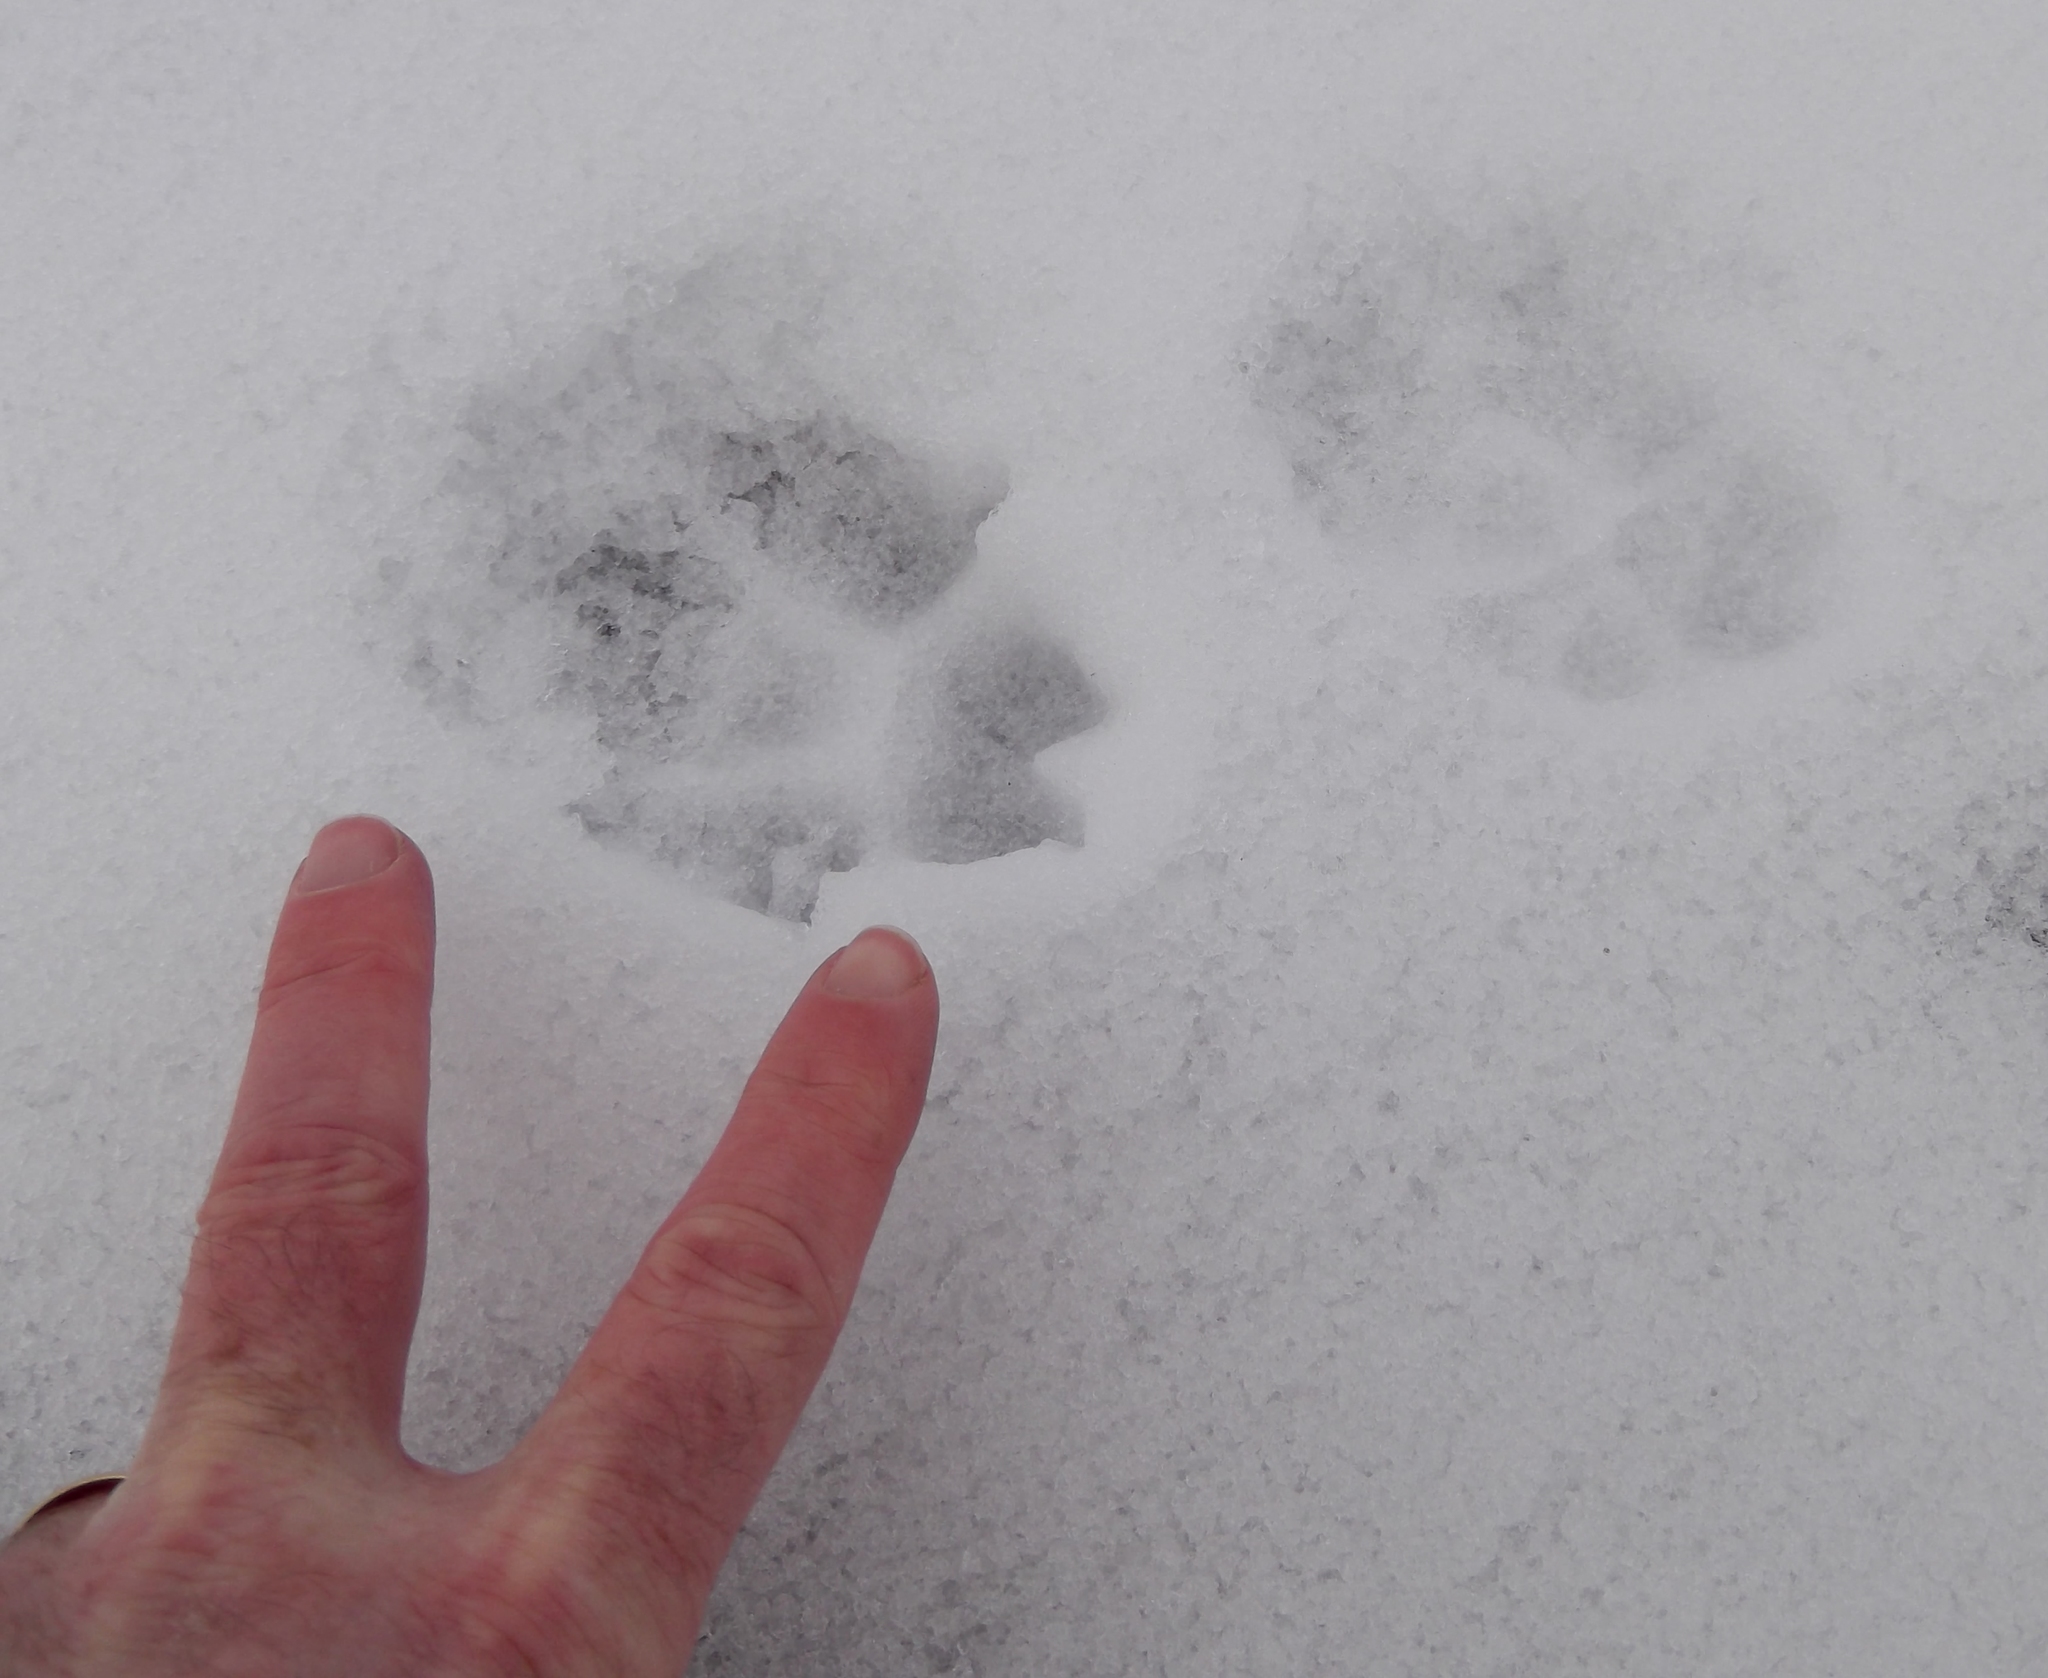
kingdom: Animalia
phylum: Chordata
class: Mammalia
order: Carnivora
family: Canidae
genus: Vulpes
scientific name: Vulpes vulpes
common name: Red fox
